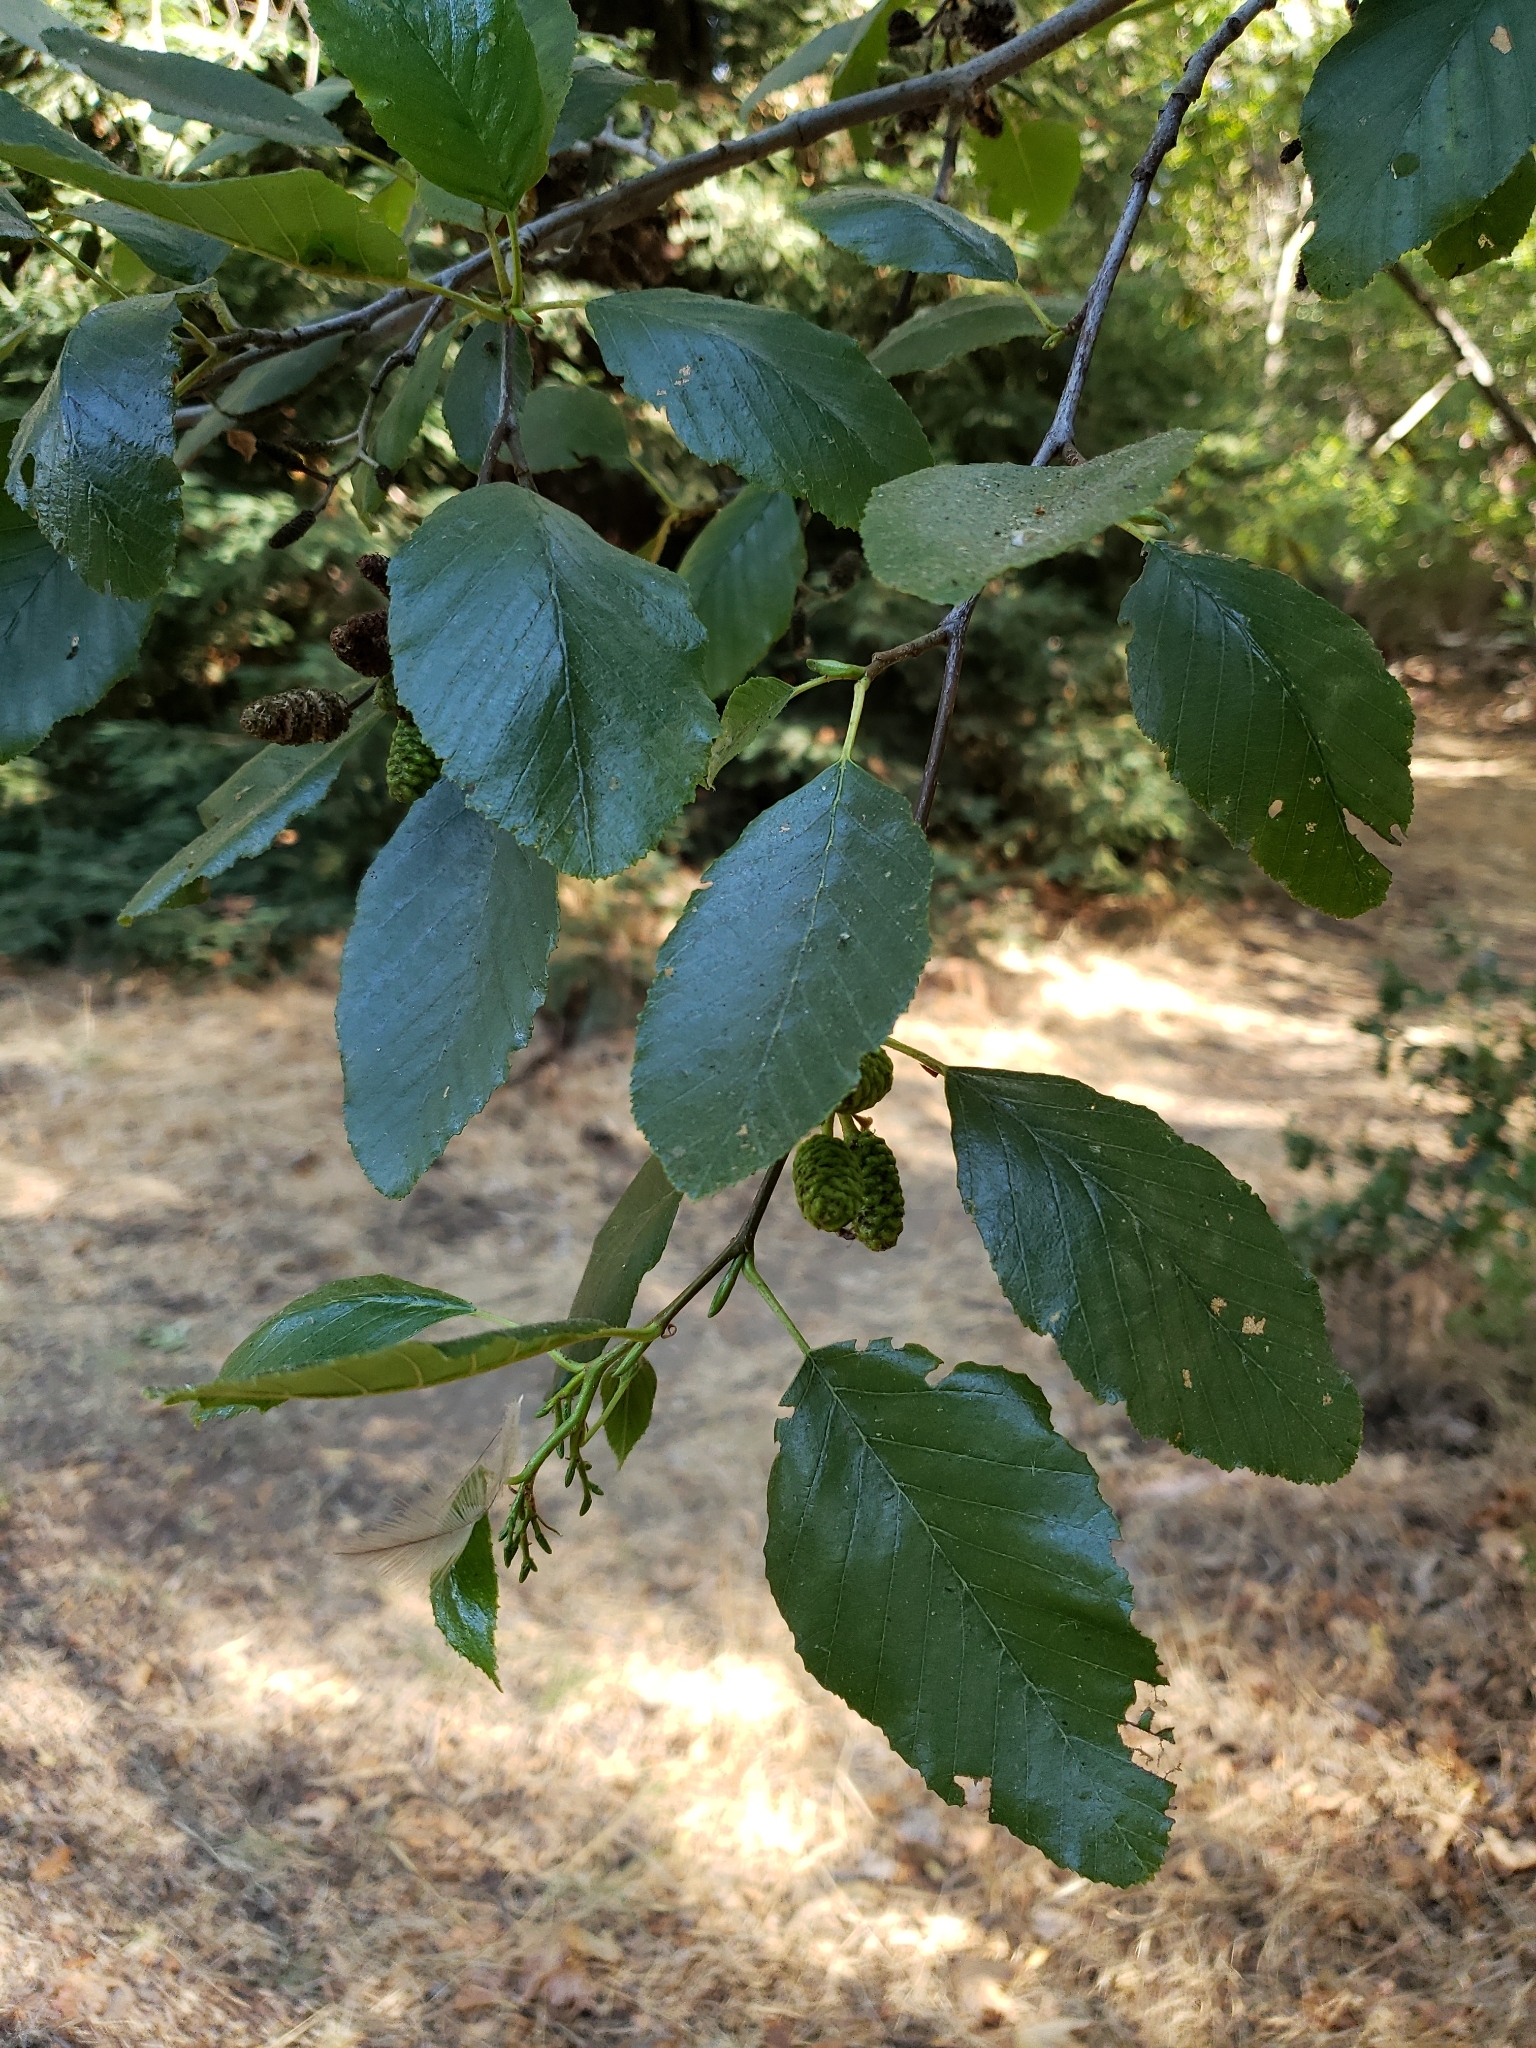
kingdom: Plantae
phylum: Tracheophyta
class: Magnoliopsida
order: Fagales
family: Betulaceae
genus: Alnus
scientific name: Alnus rhombifolia
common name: California alder
